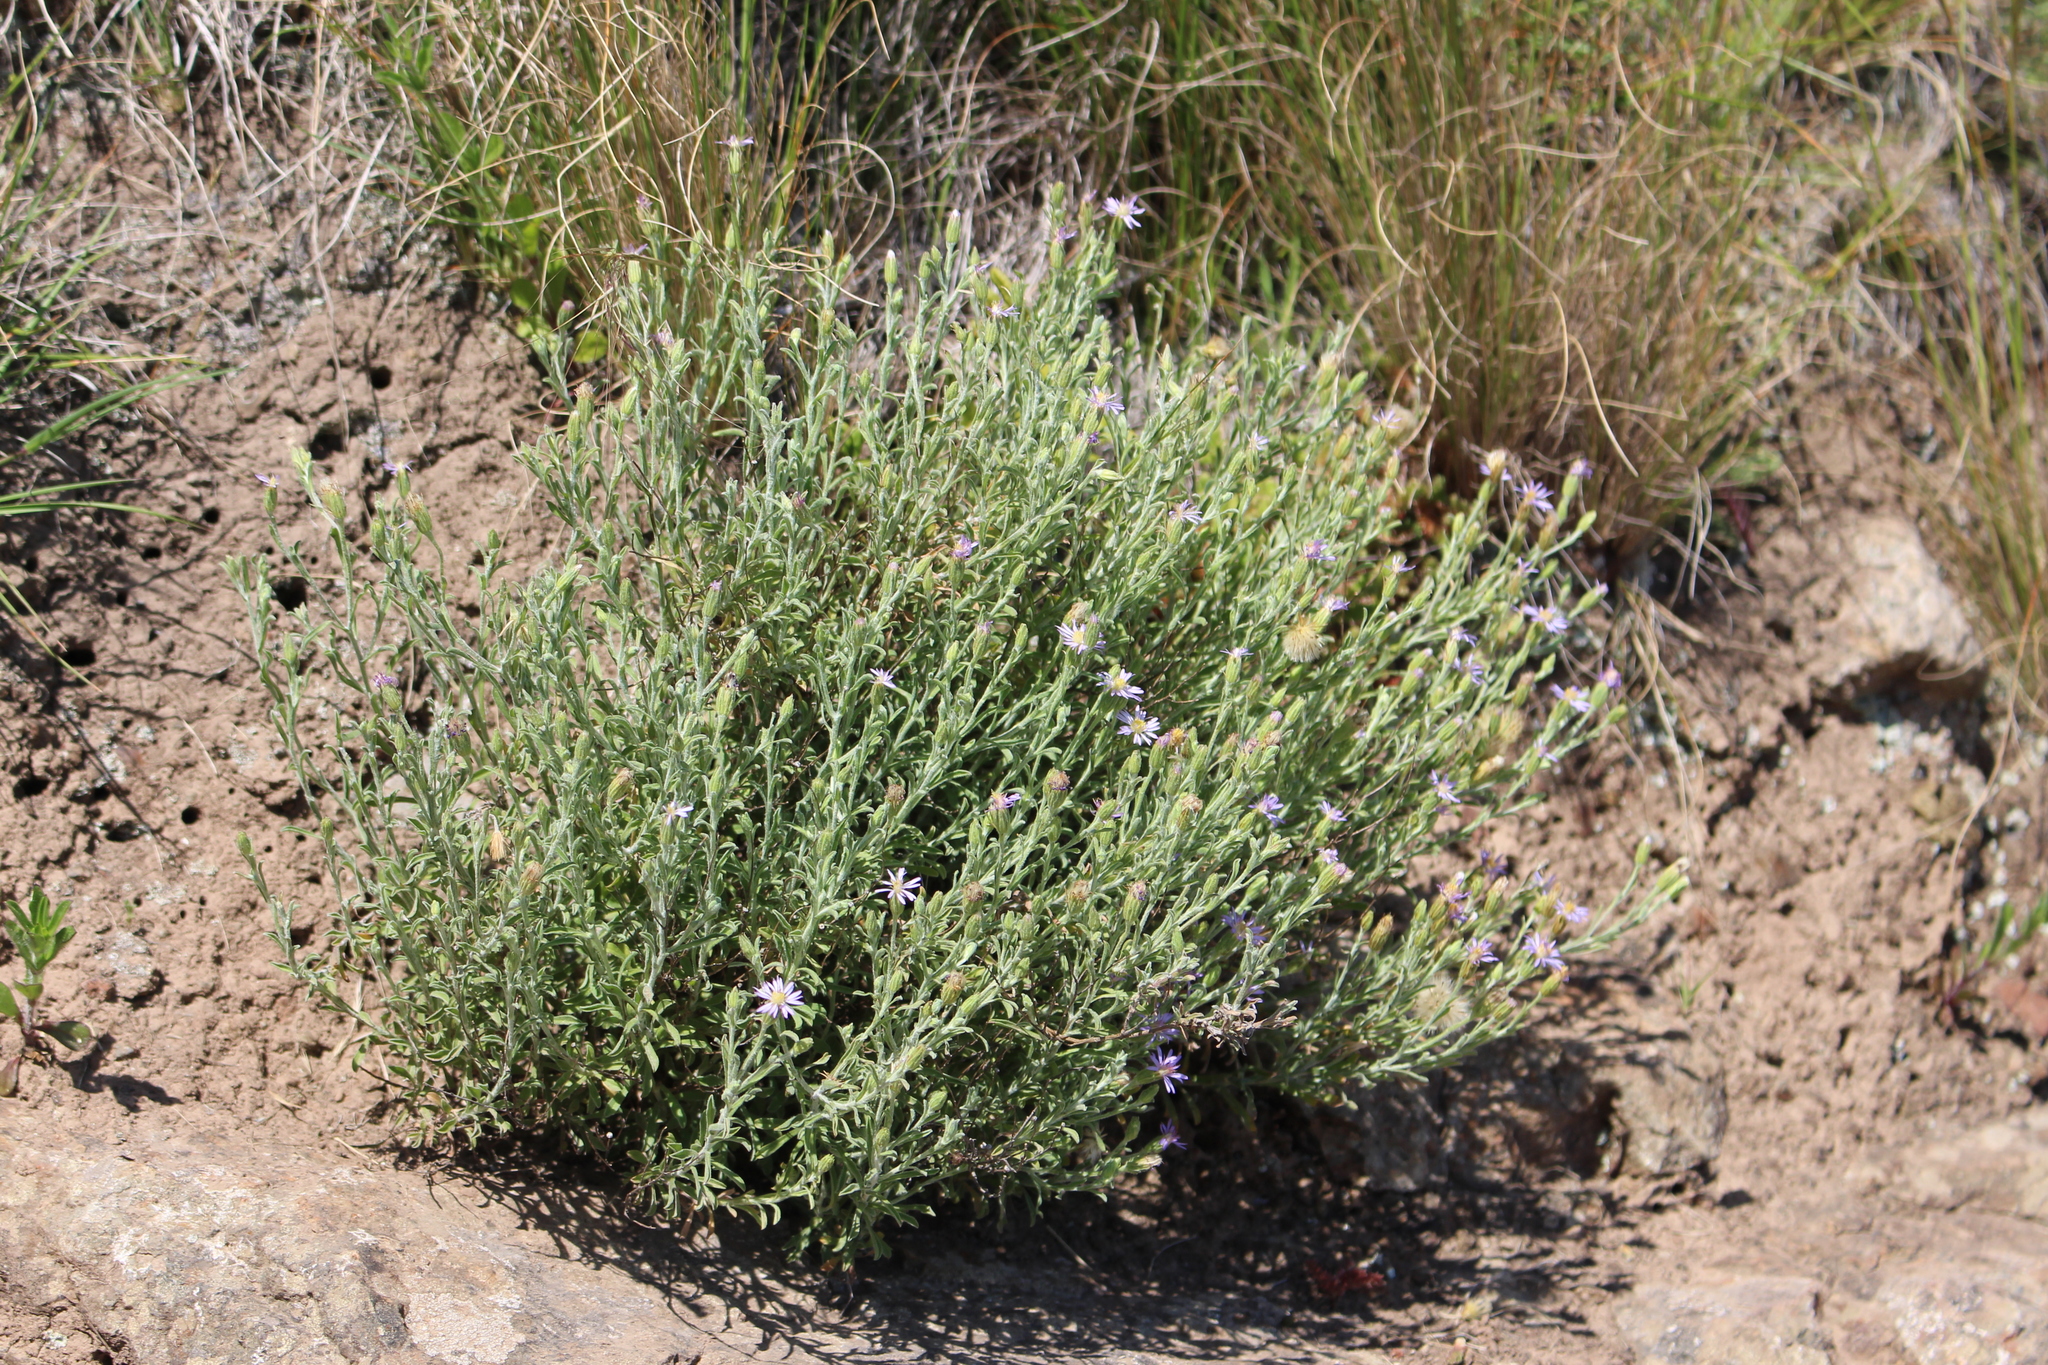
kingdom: Plantae
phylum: Tracheophyta
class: Magnoliopsida
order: Asterales
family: Asteraceae
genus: Vittadinia
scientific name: Vittadinia gracilis
